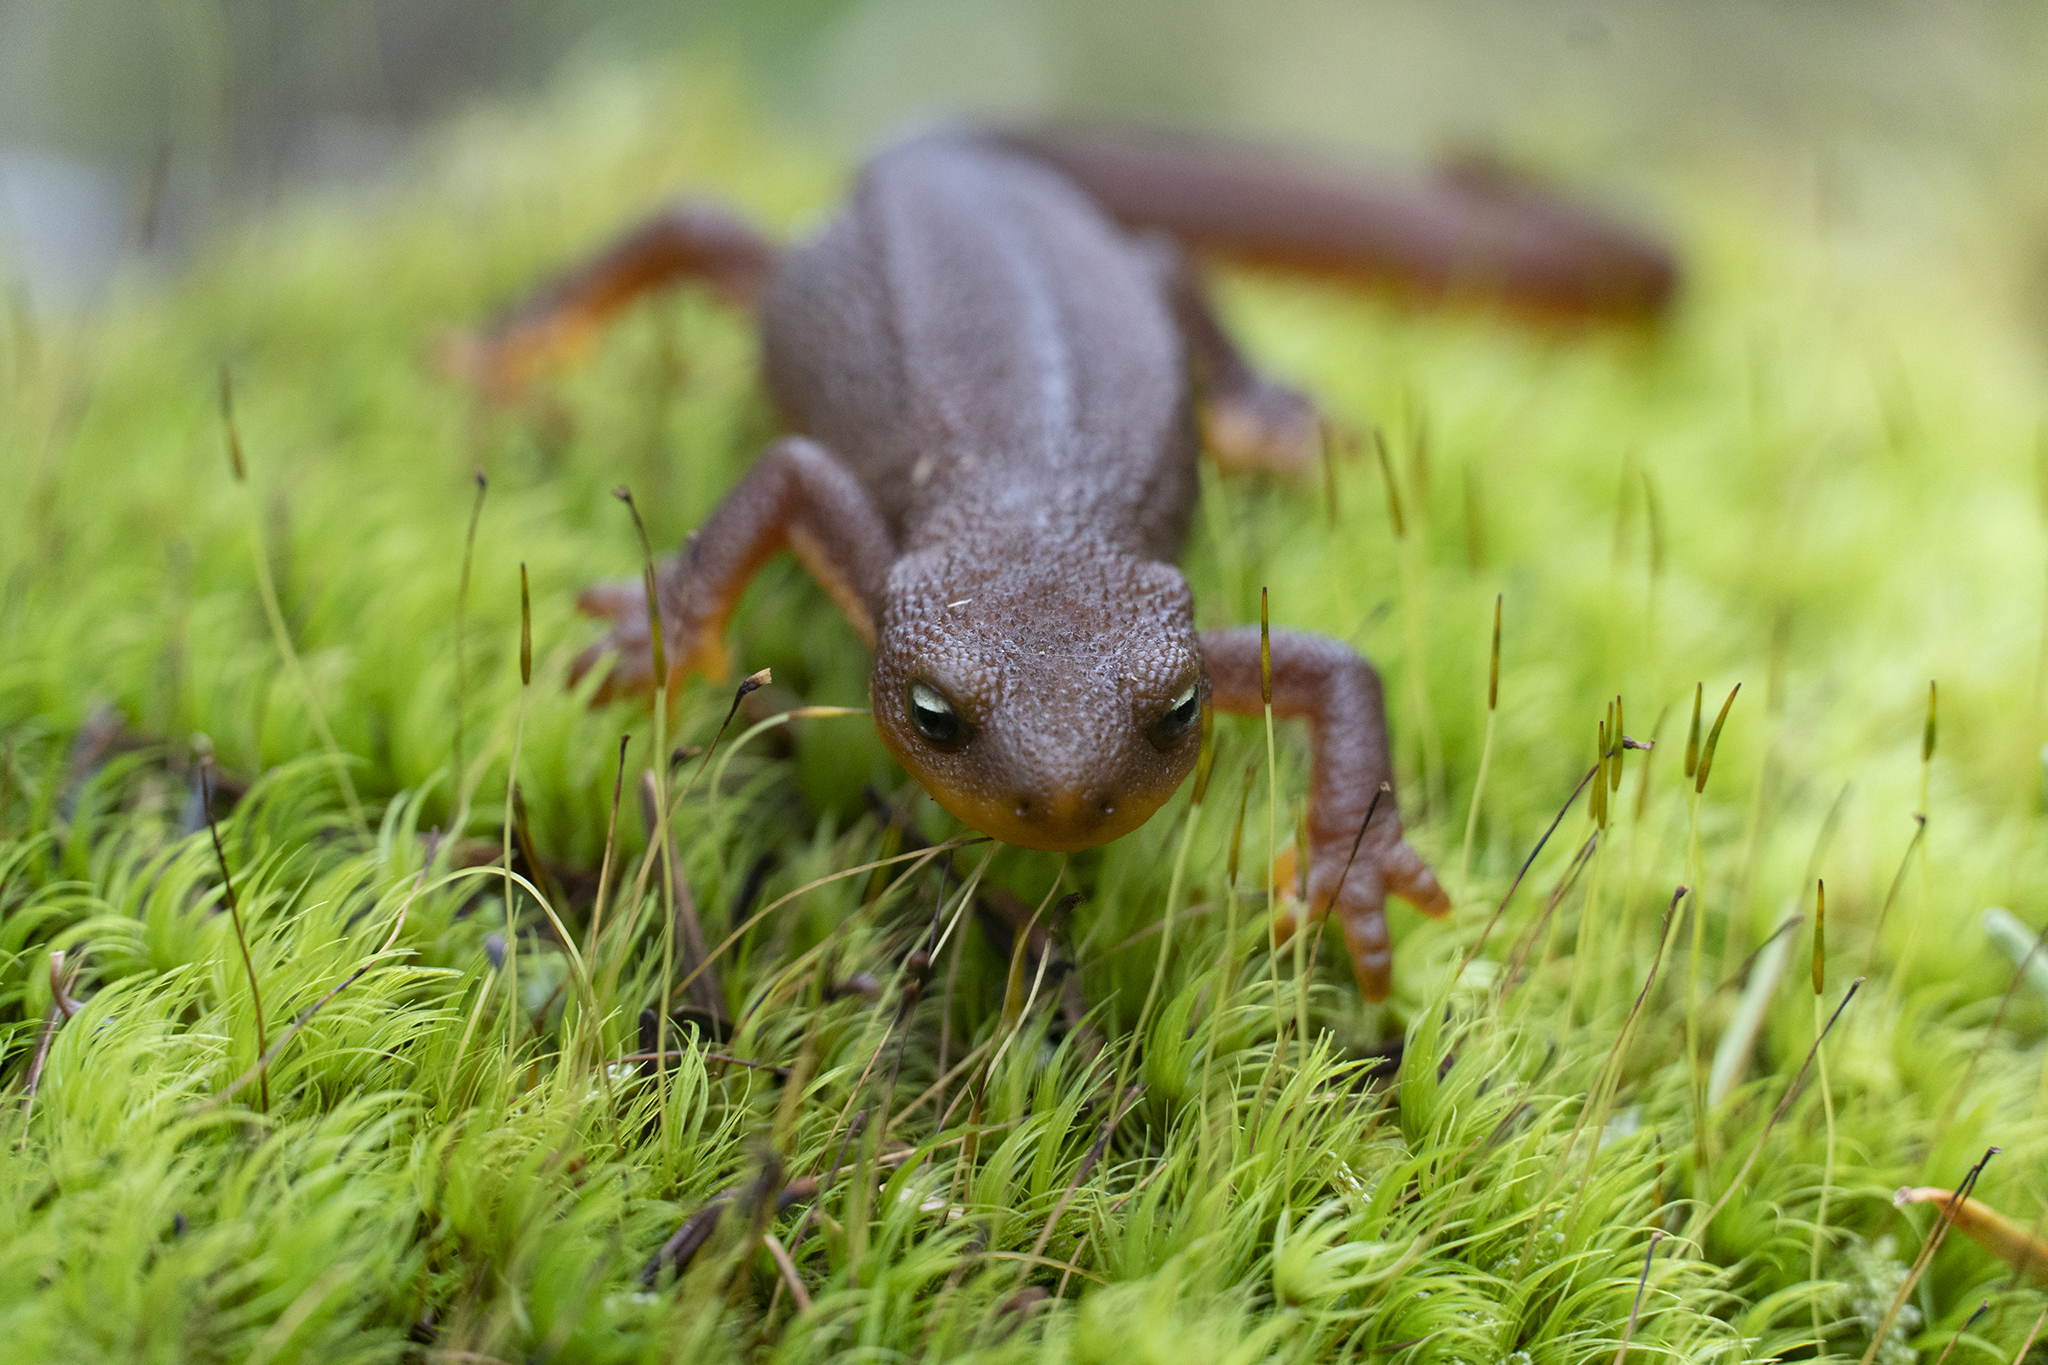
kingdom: Animalia
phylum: Chordata
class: Amphibia
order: Caudata
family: Salamandridae
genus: Taricha
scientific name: Taricha granulosa
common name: Roughskin newt
